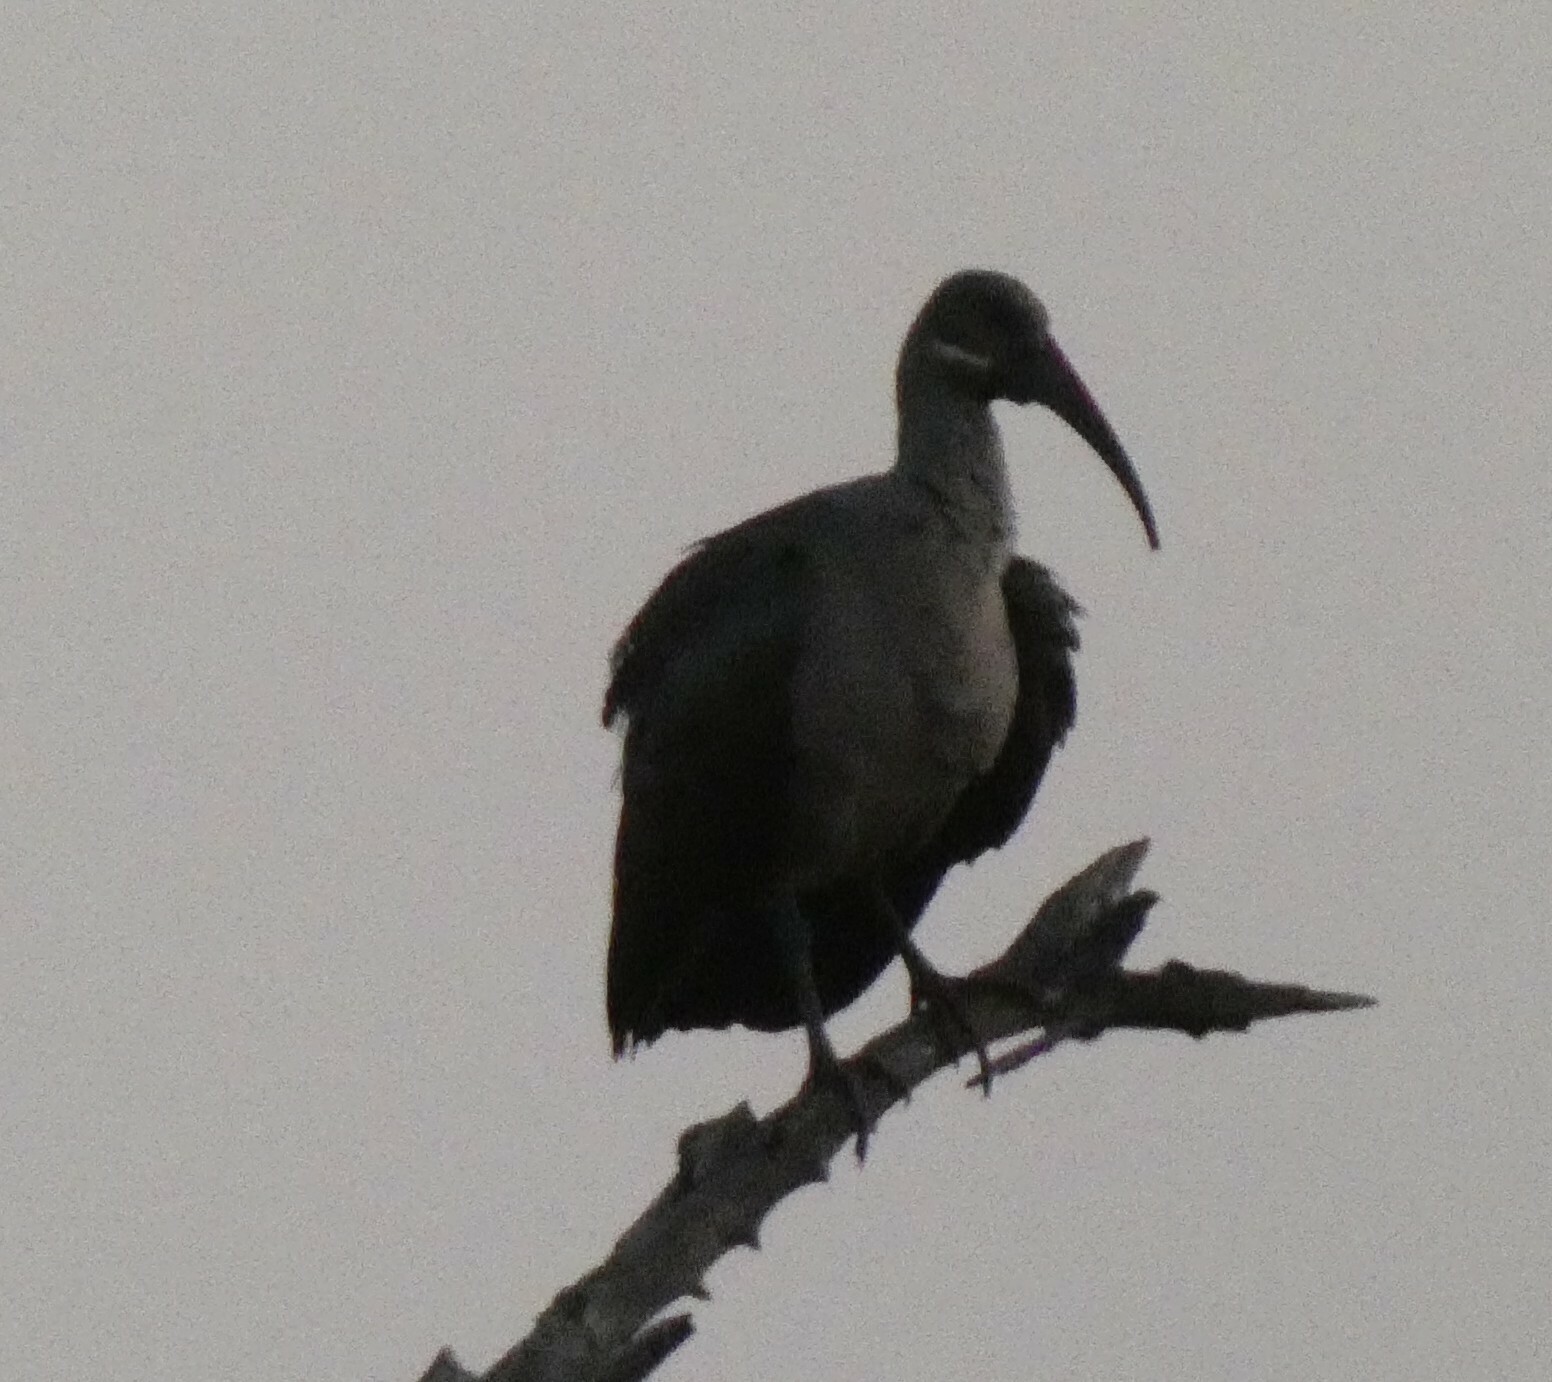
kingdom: Animalia
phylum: Chordata
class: Aves
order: Pelecaniformes
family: Threskiornithidae
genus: Bostrychia
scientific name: Bostrychia hagedash
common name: Hadada ibis
